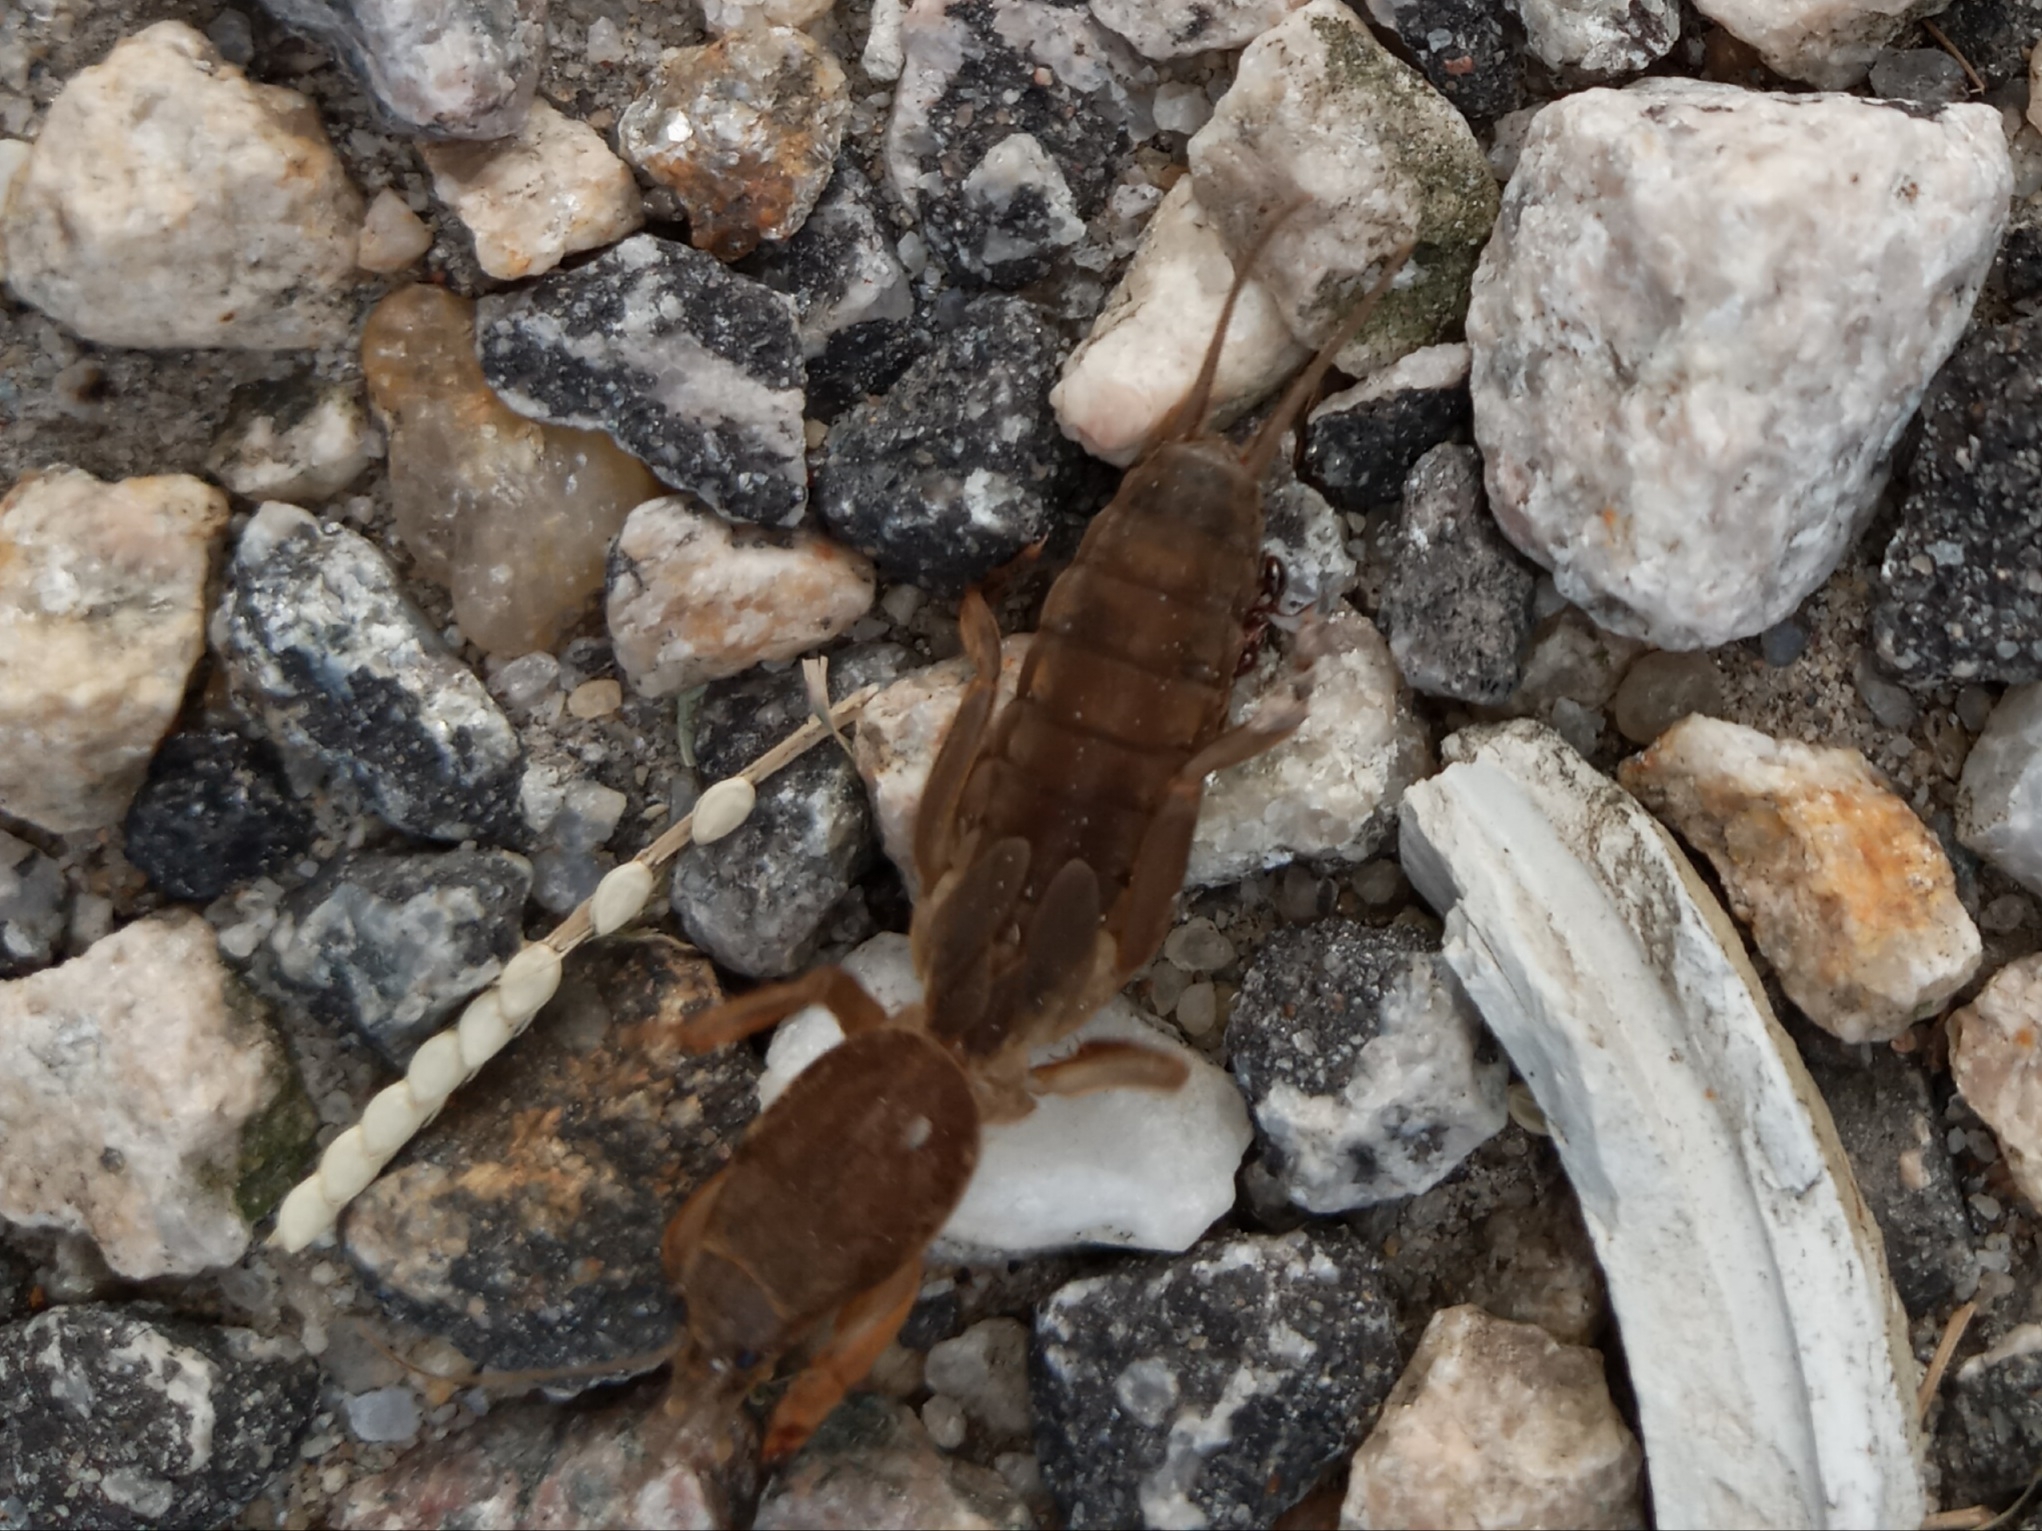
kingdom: Animalia
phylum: Arthropoda
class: Insecta
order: Orthoptera
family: Gryllotalpidae
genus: Neoscapteriscus
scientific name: Neoscapteriscus vicinus
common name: Tawny mole cricket
